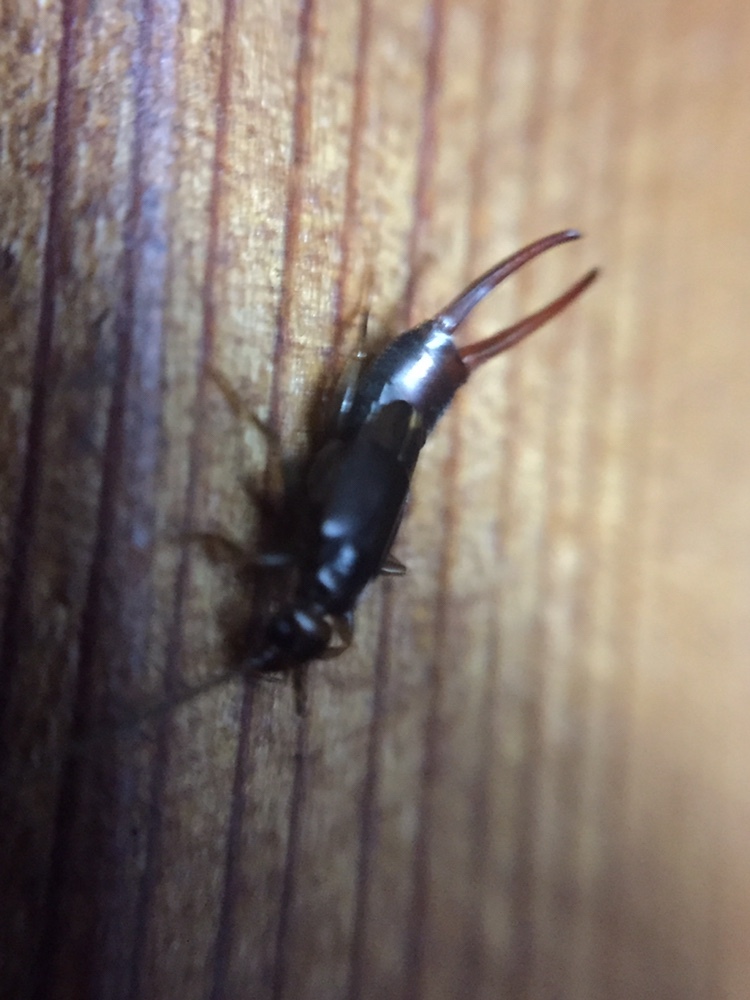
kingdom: Animalia
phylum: Arthropoda
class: Insecta
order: Dermaptera
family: Spongiphoridae
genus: Nesogaster
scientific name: Nesogaster halli
